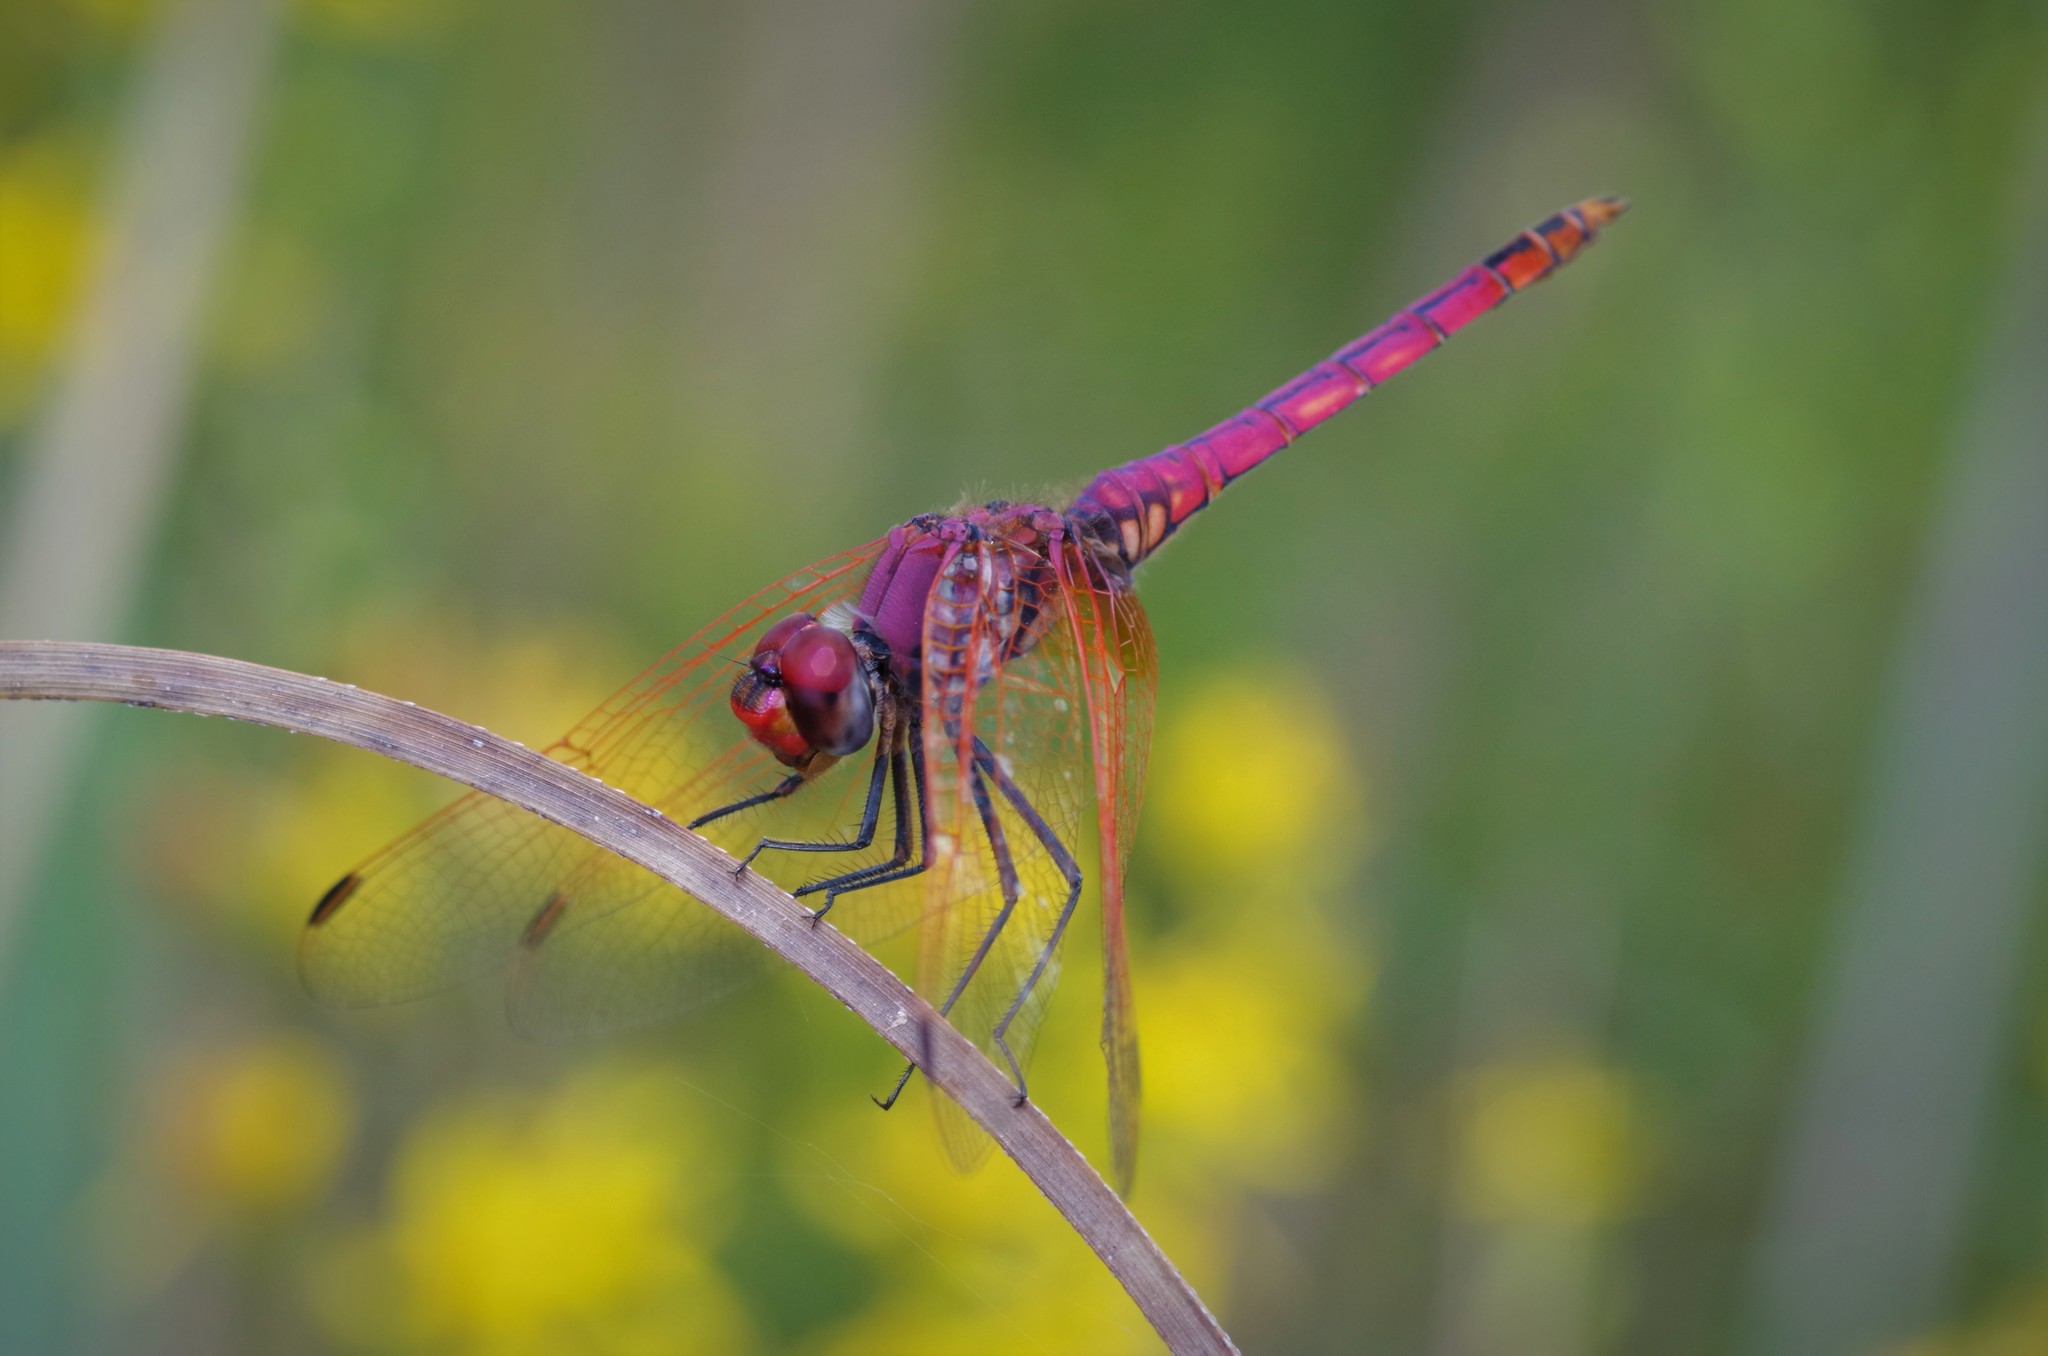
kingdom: Animalia
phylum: Arthropoda
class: Insecta
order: Odonata
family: Libellulidae
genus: Trithemis
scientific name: Trithemis annulata
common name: Violet dropwing
